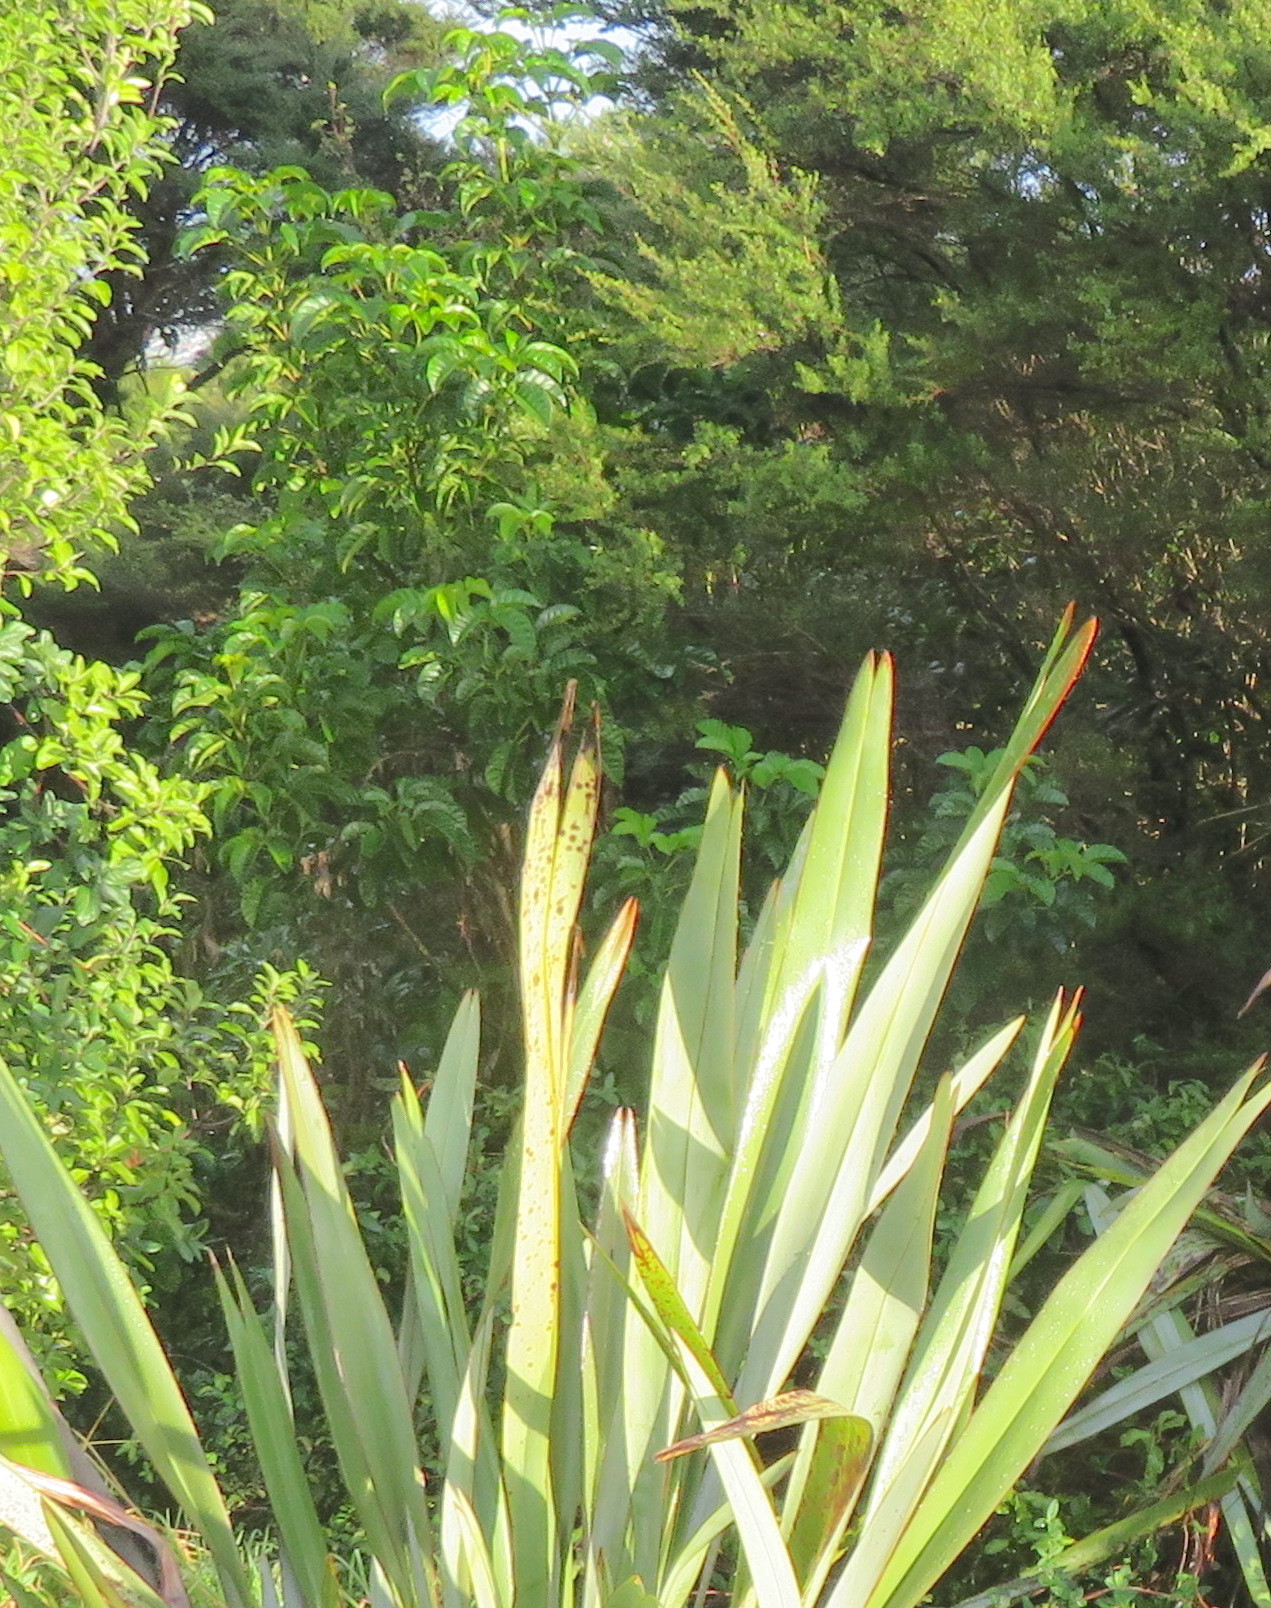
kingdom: Plantae
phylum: Tracheophyta
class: Magnoliopsida
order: Lamiales
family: Lamiaceae
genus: Vitex
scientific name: Vitex lucens
